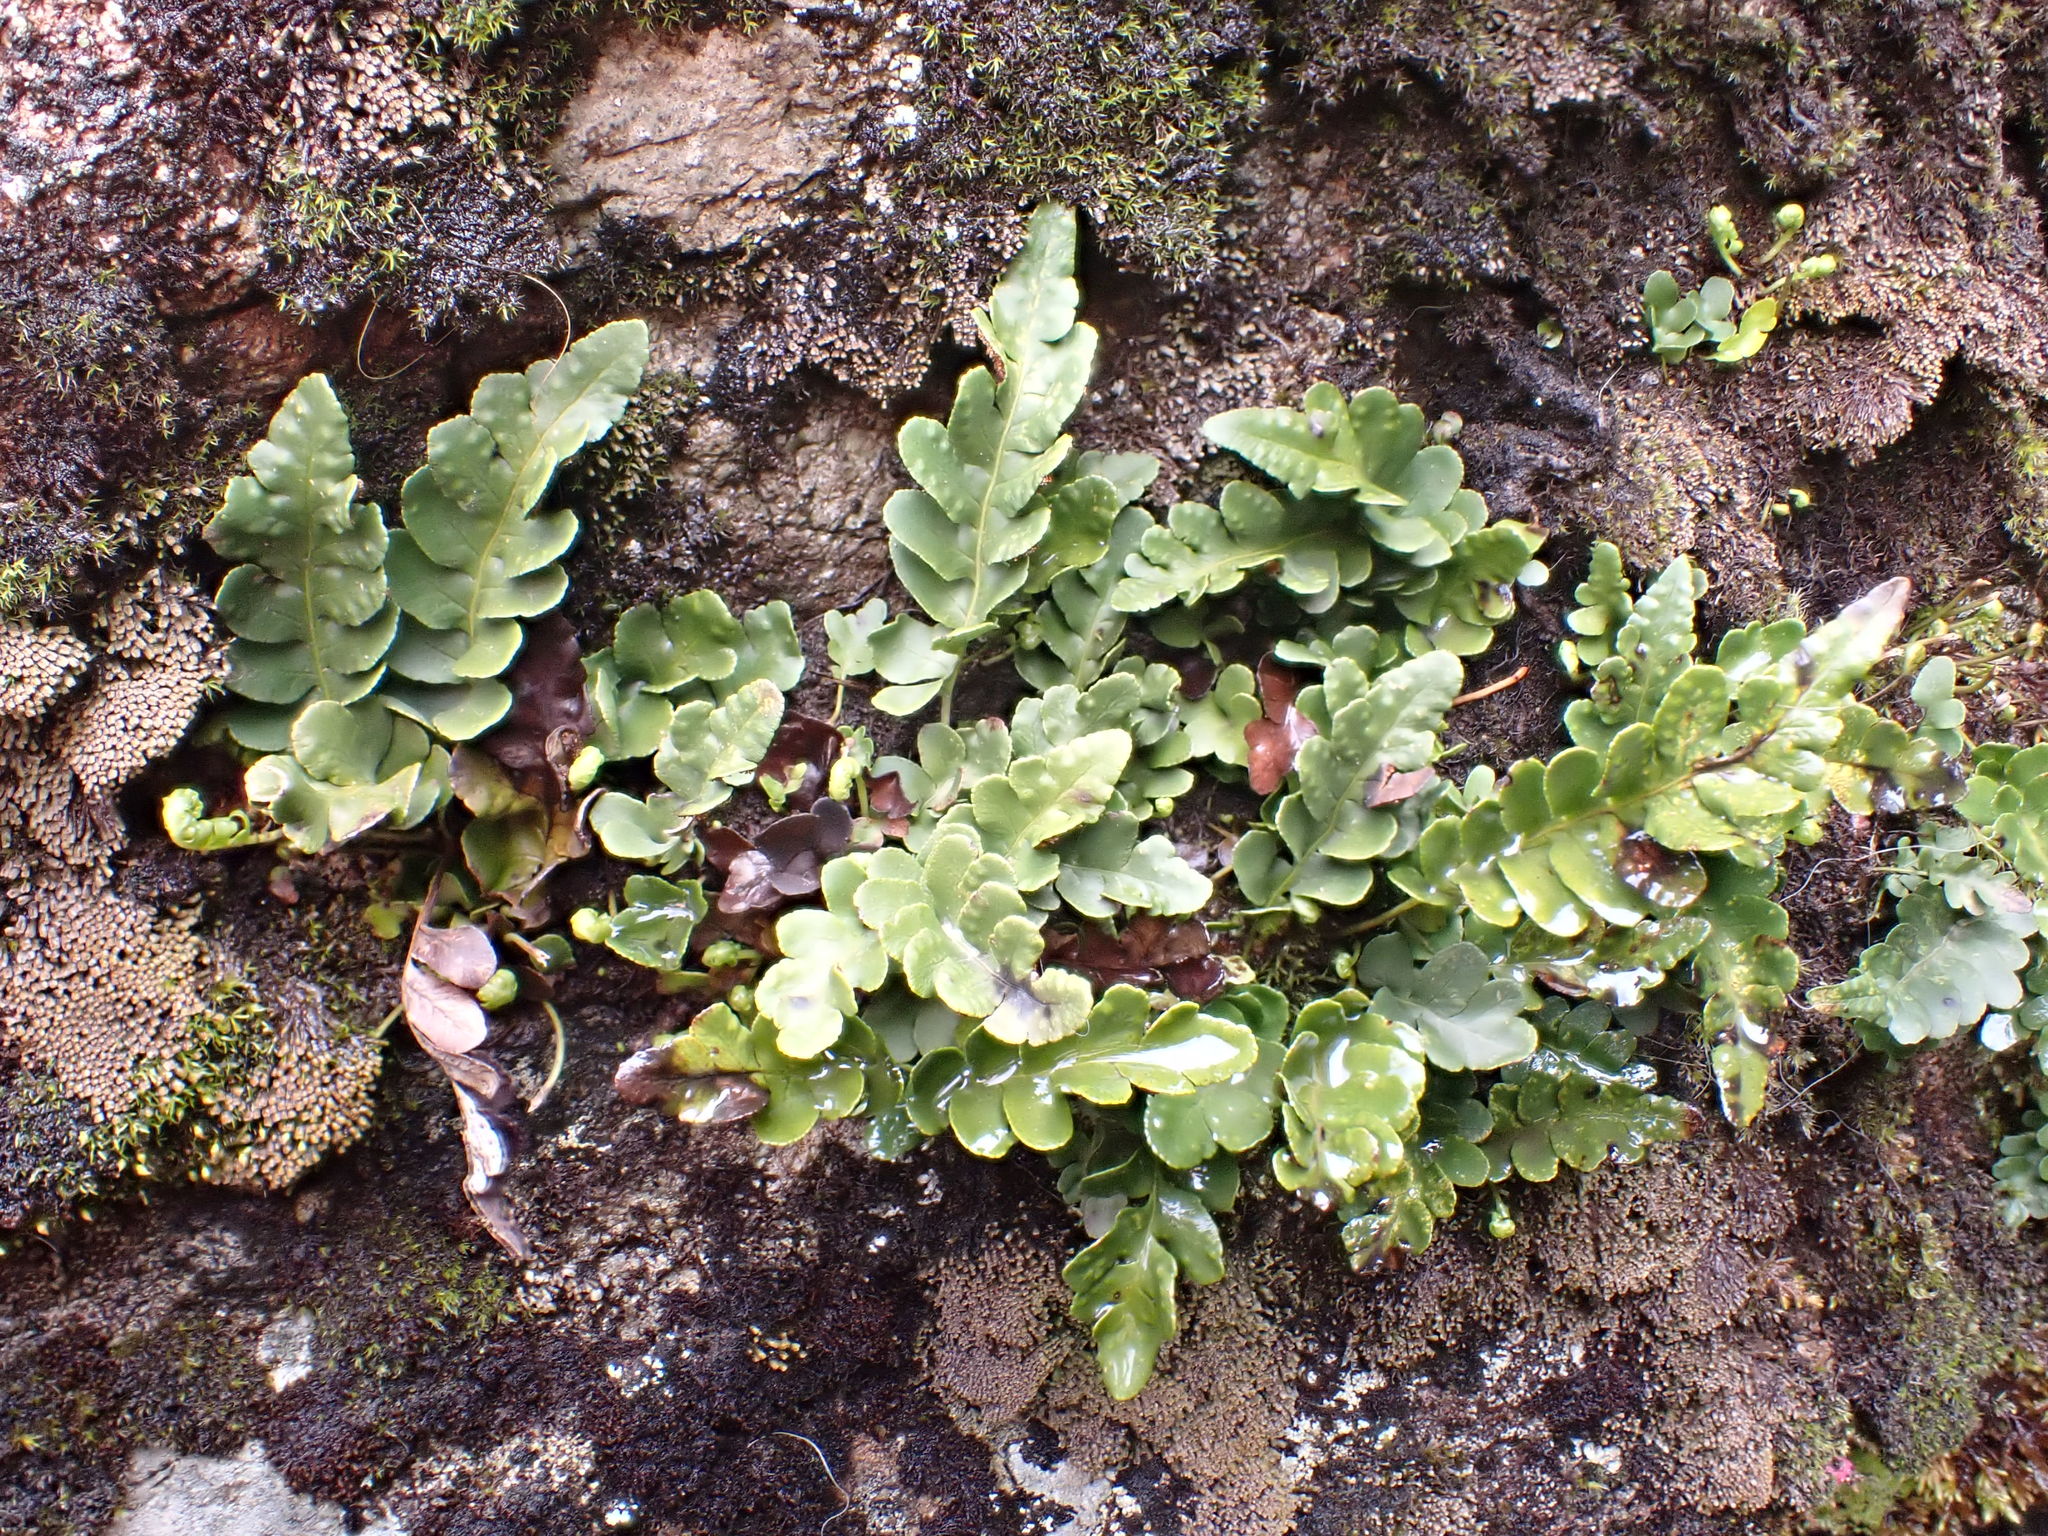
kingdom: Plantae
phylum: Tracheophyta
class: Polypodiopsida
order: Polypodiales
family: Polypodiaceae
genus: Polypodium
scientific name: Polypodium amorphum
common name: Pacific polypody
